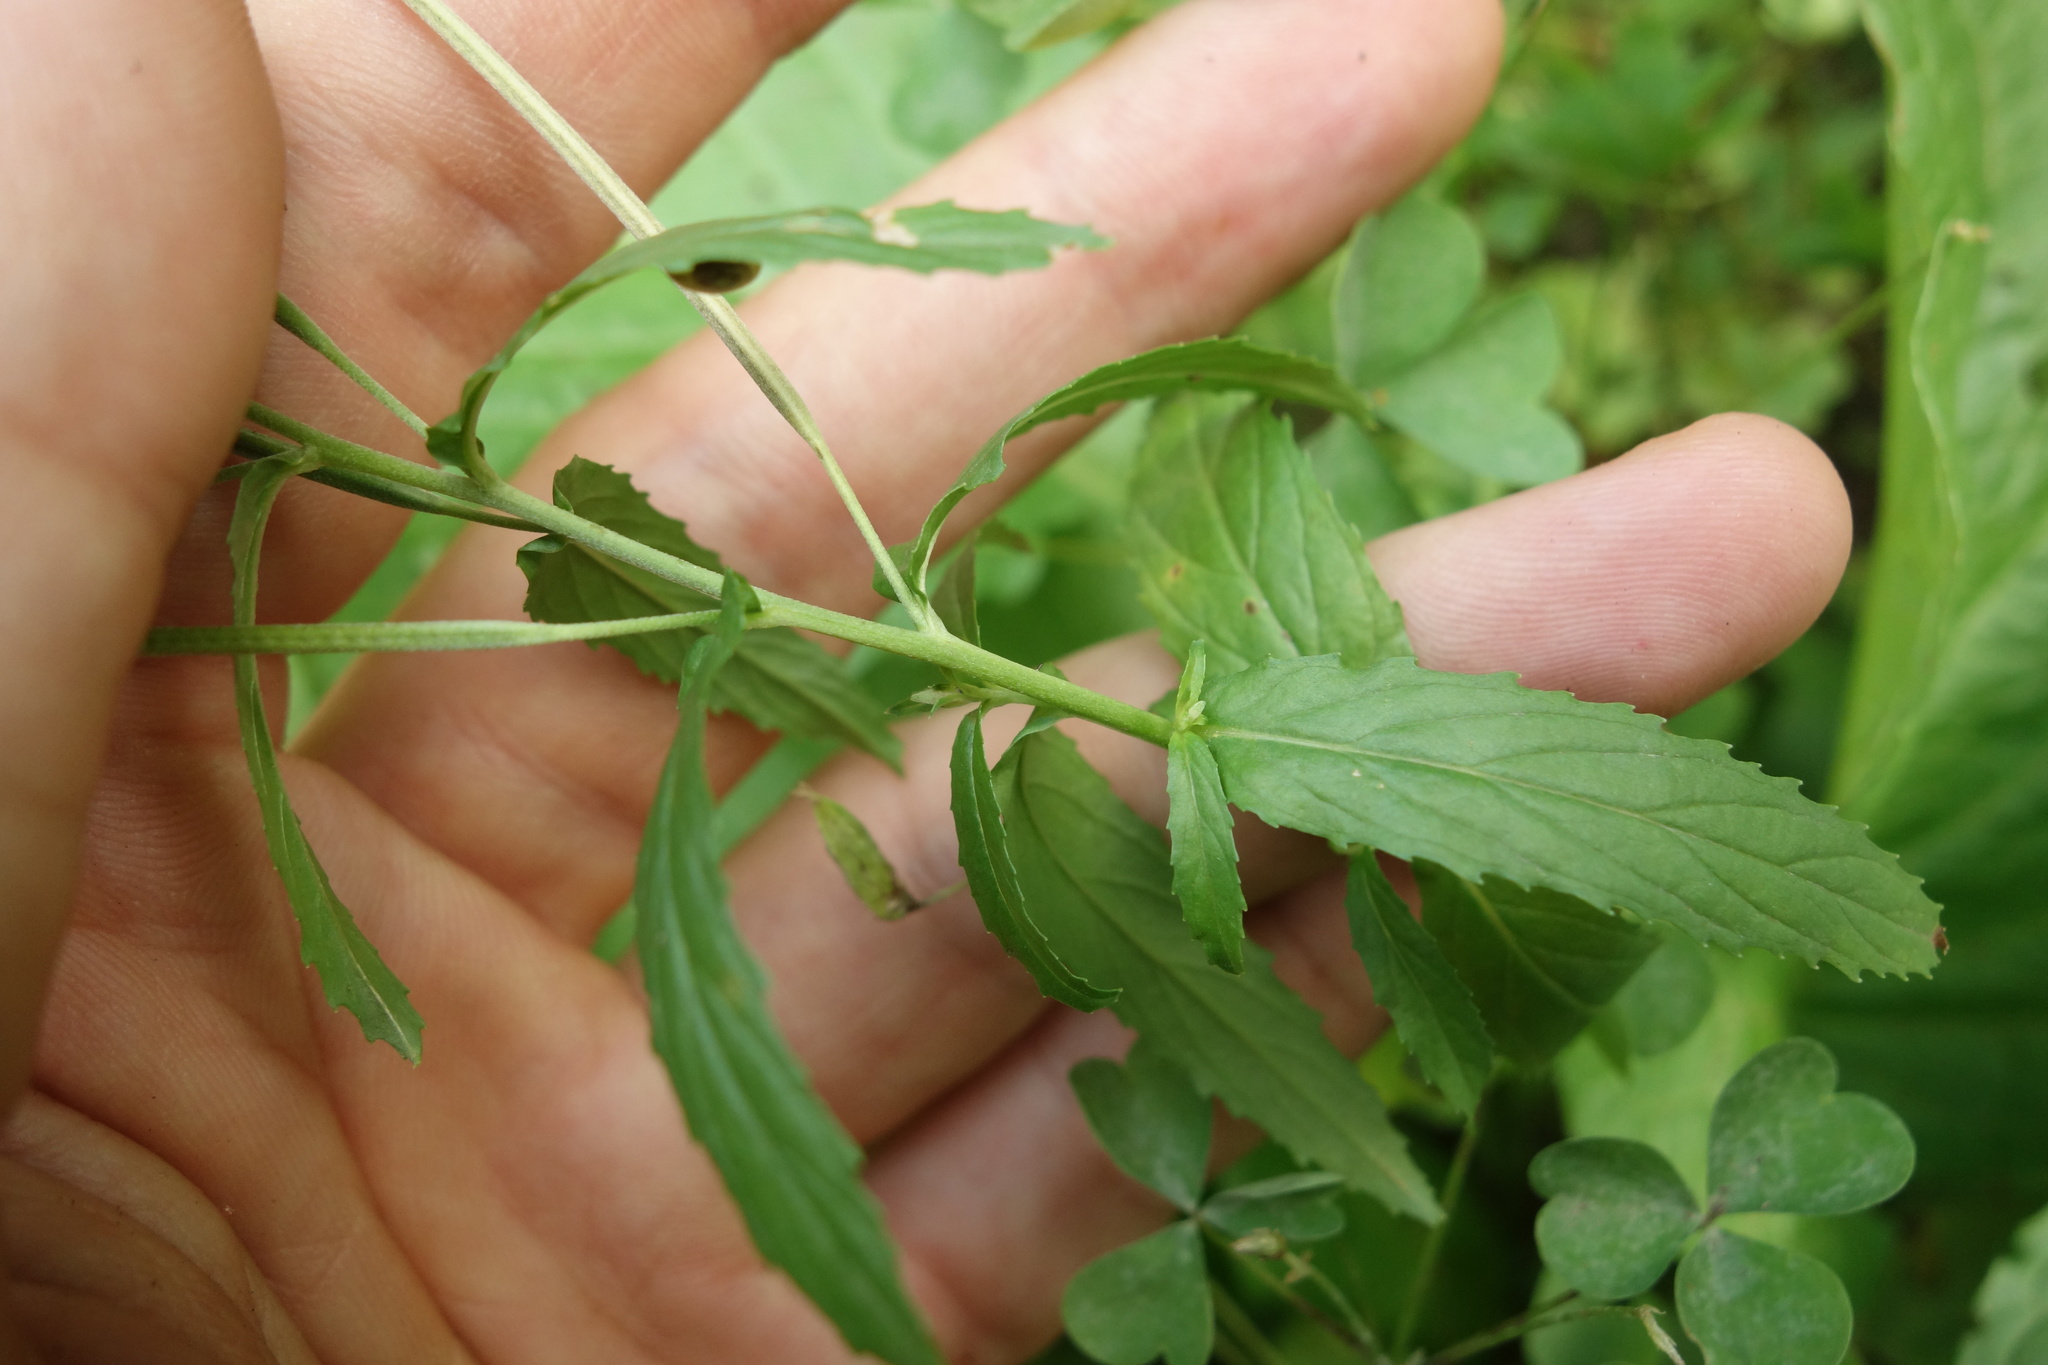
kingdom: Plantae
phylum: Tracheophyta
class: Magnoliopsida
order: Myrtales
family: Onagraceae
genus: Epilobium
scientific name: Epilobium tetragonum
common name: Square-stemmed willowherb
